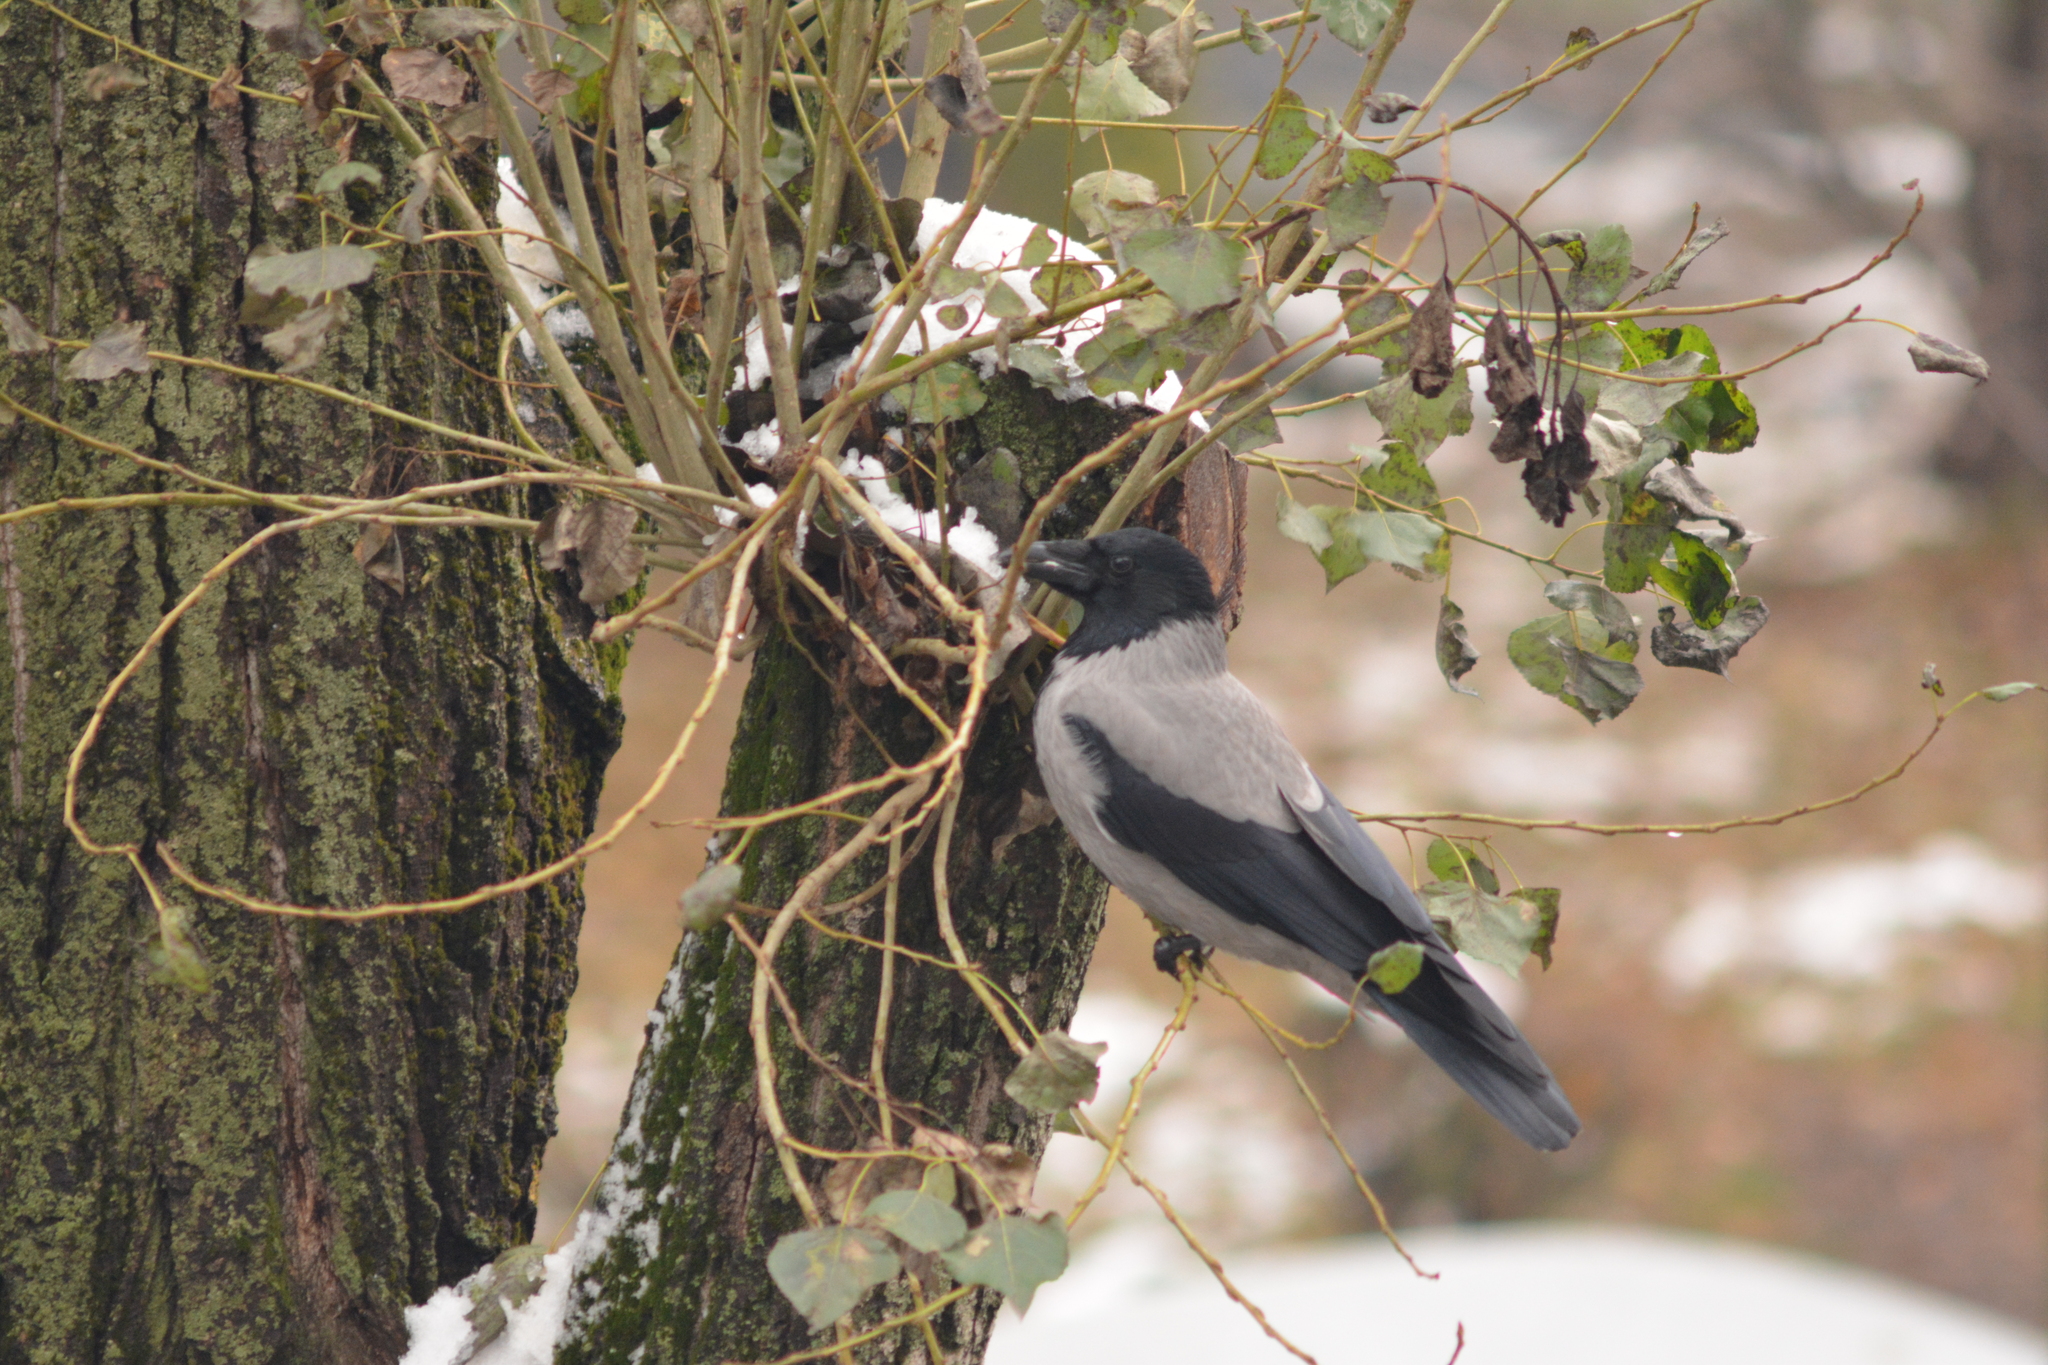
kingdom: Animalia
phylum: Chordata
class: Aves
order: Passeriformes
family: Corvidae
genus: Corvus
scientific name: Corvus cornix
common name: Hooded crow
